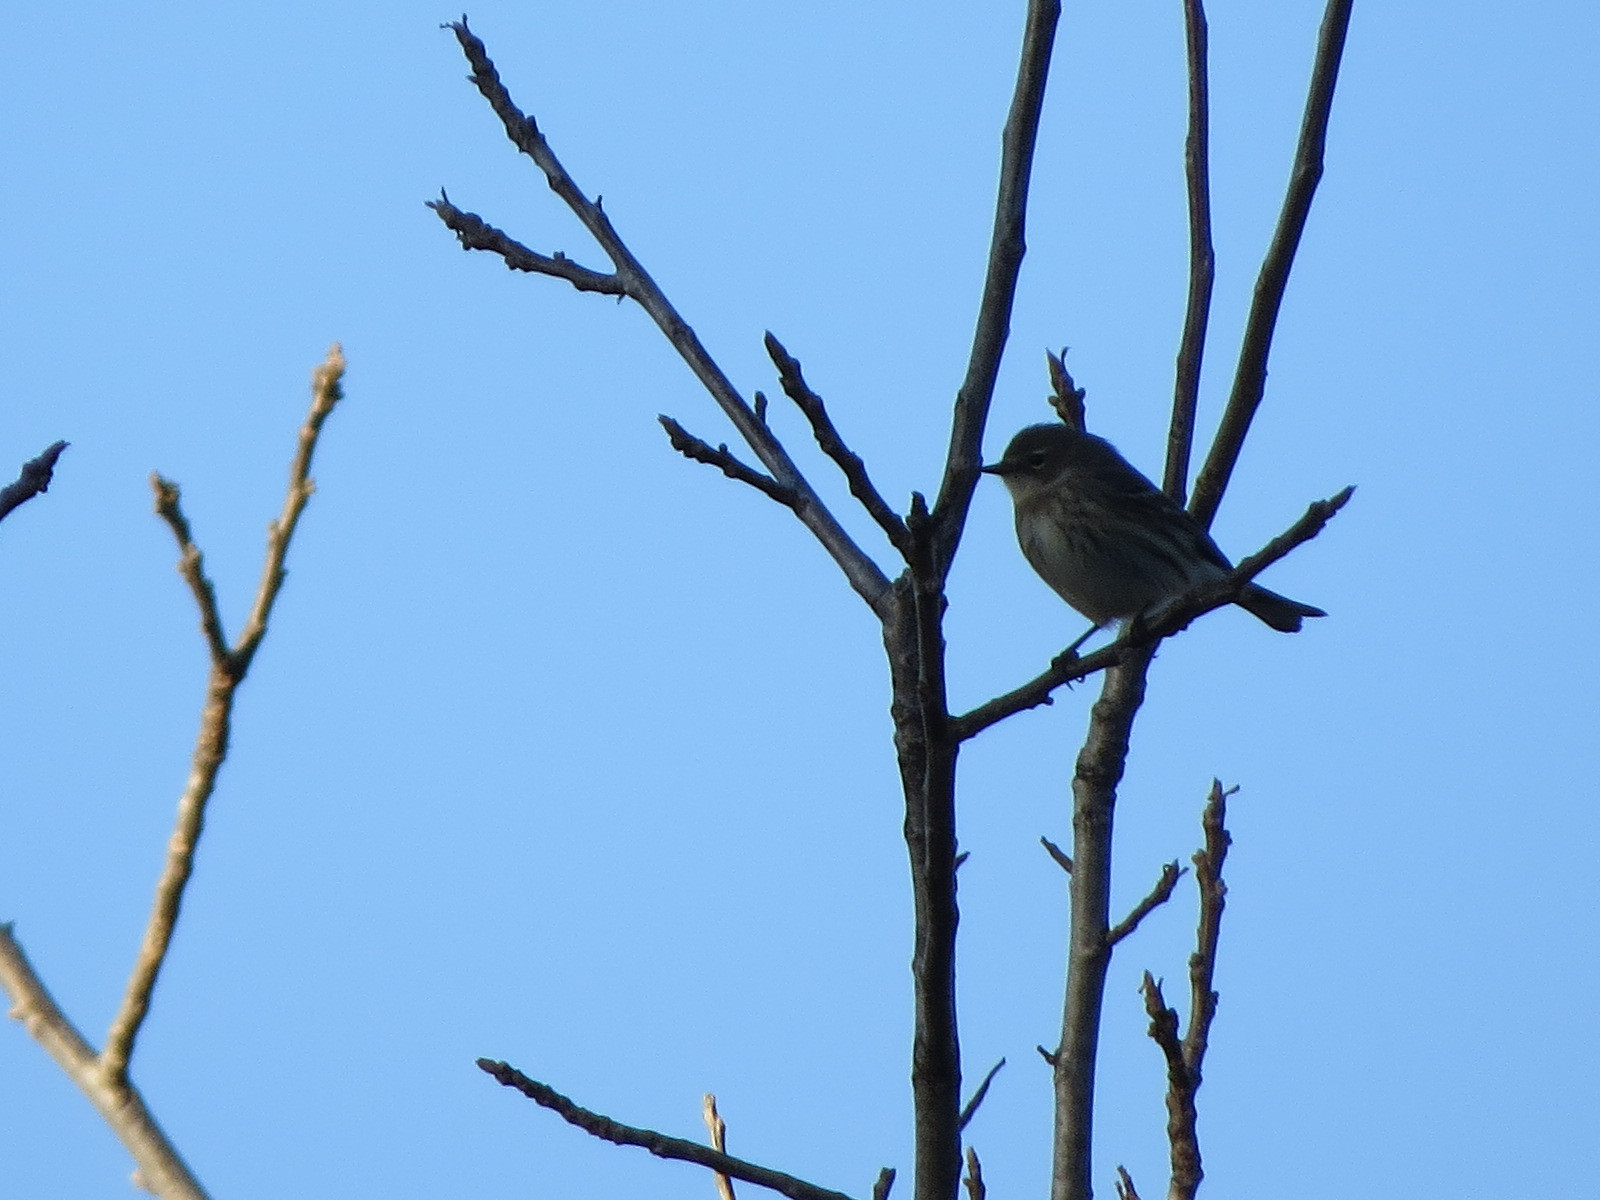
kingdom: Animalia
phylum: Chordata
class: Aves
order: Passeriformes
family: Parulidae
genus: Setophaga
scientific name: Setophaga coronata
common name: Myrtle warbler
